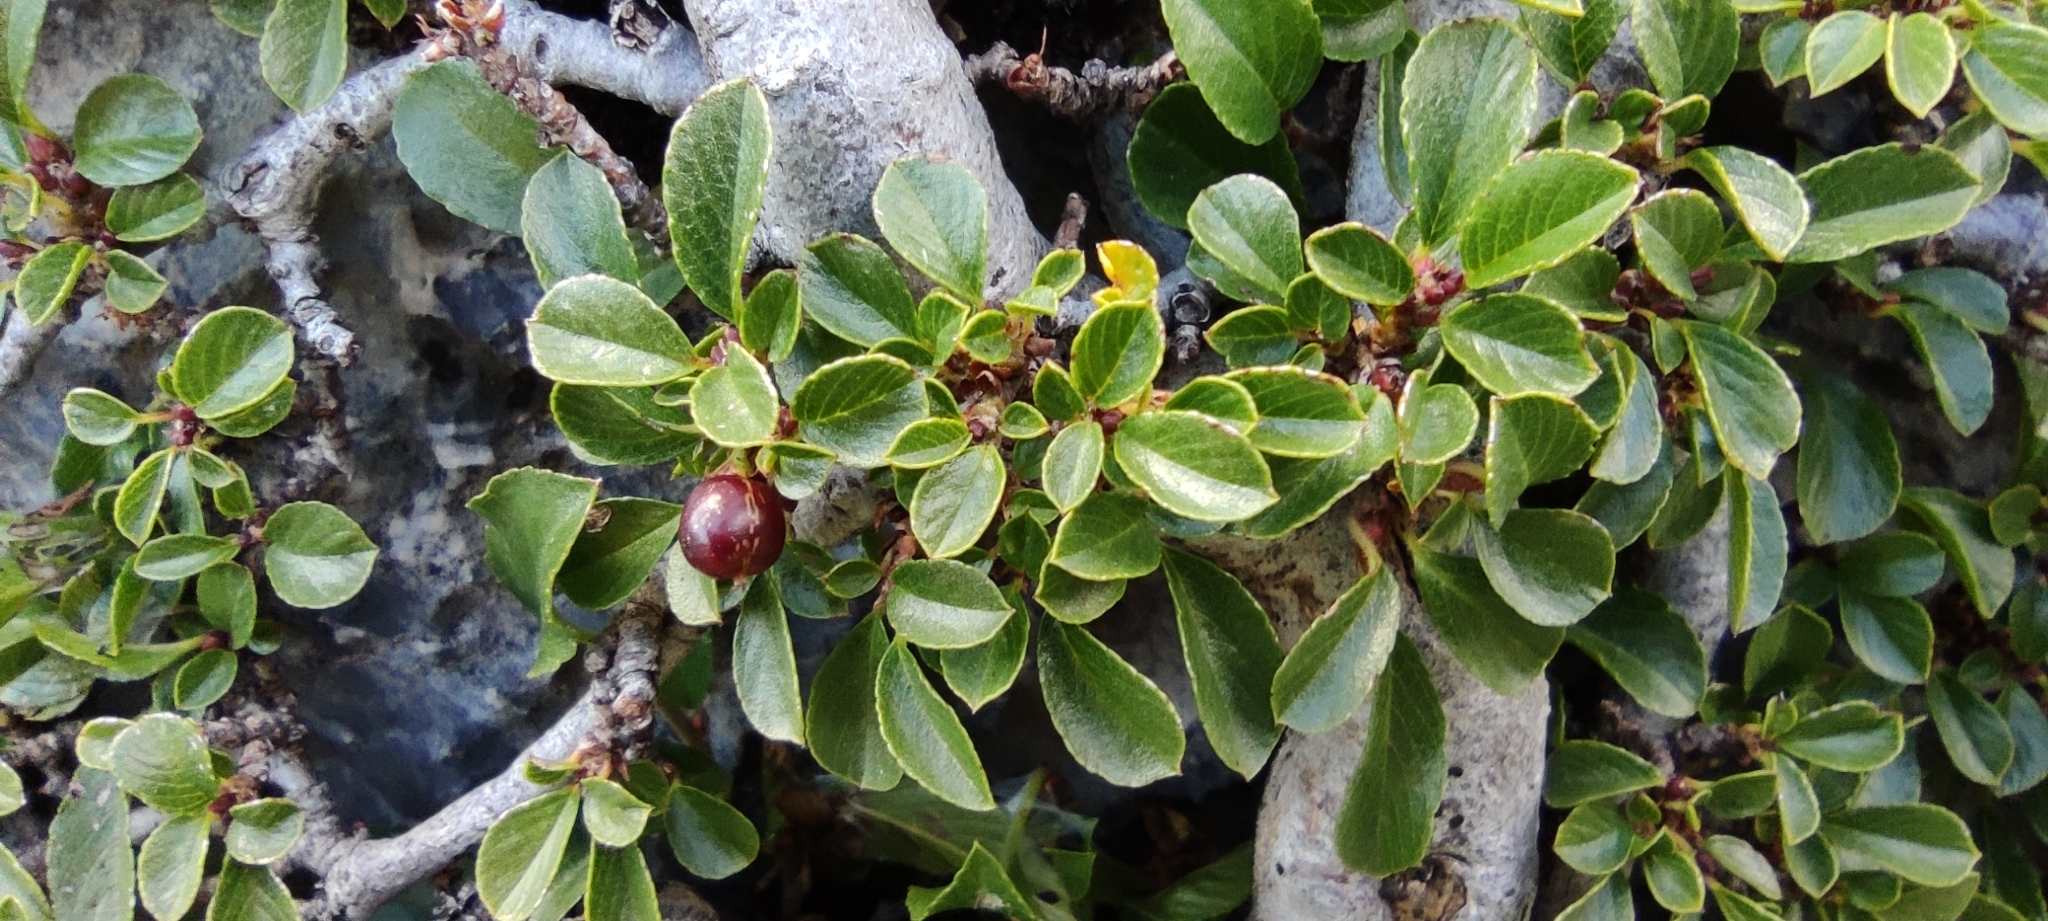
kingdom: Plantae
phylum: Tracheophyta
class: Magnoliopsida
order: Rosales
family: Rhamnaceae
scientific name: Rhamnaceae
